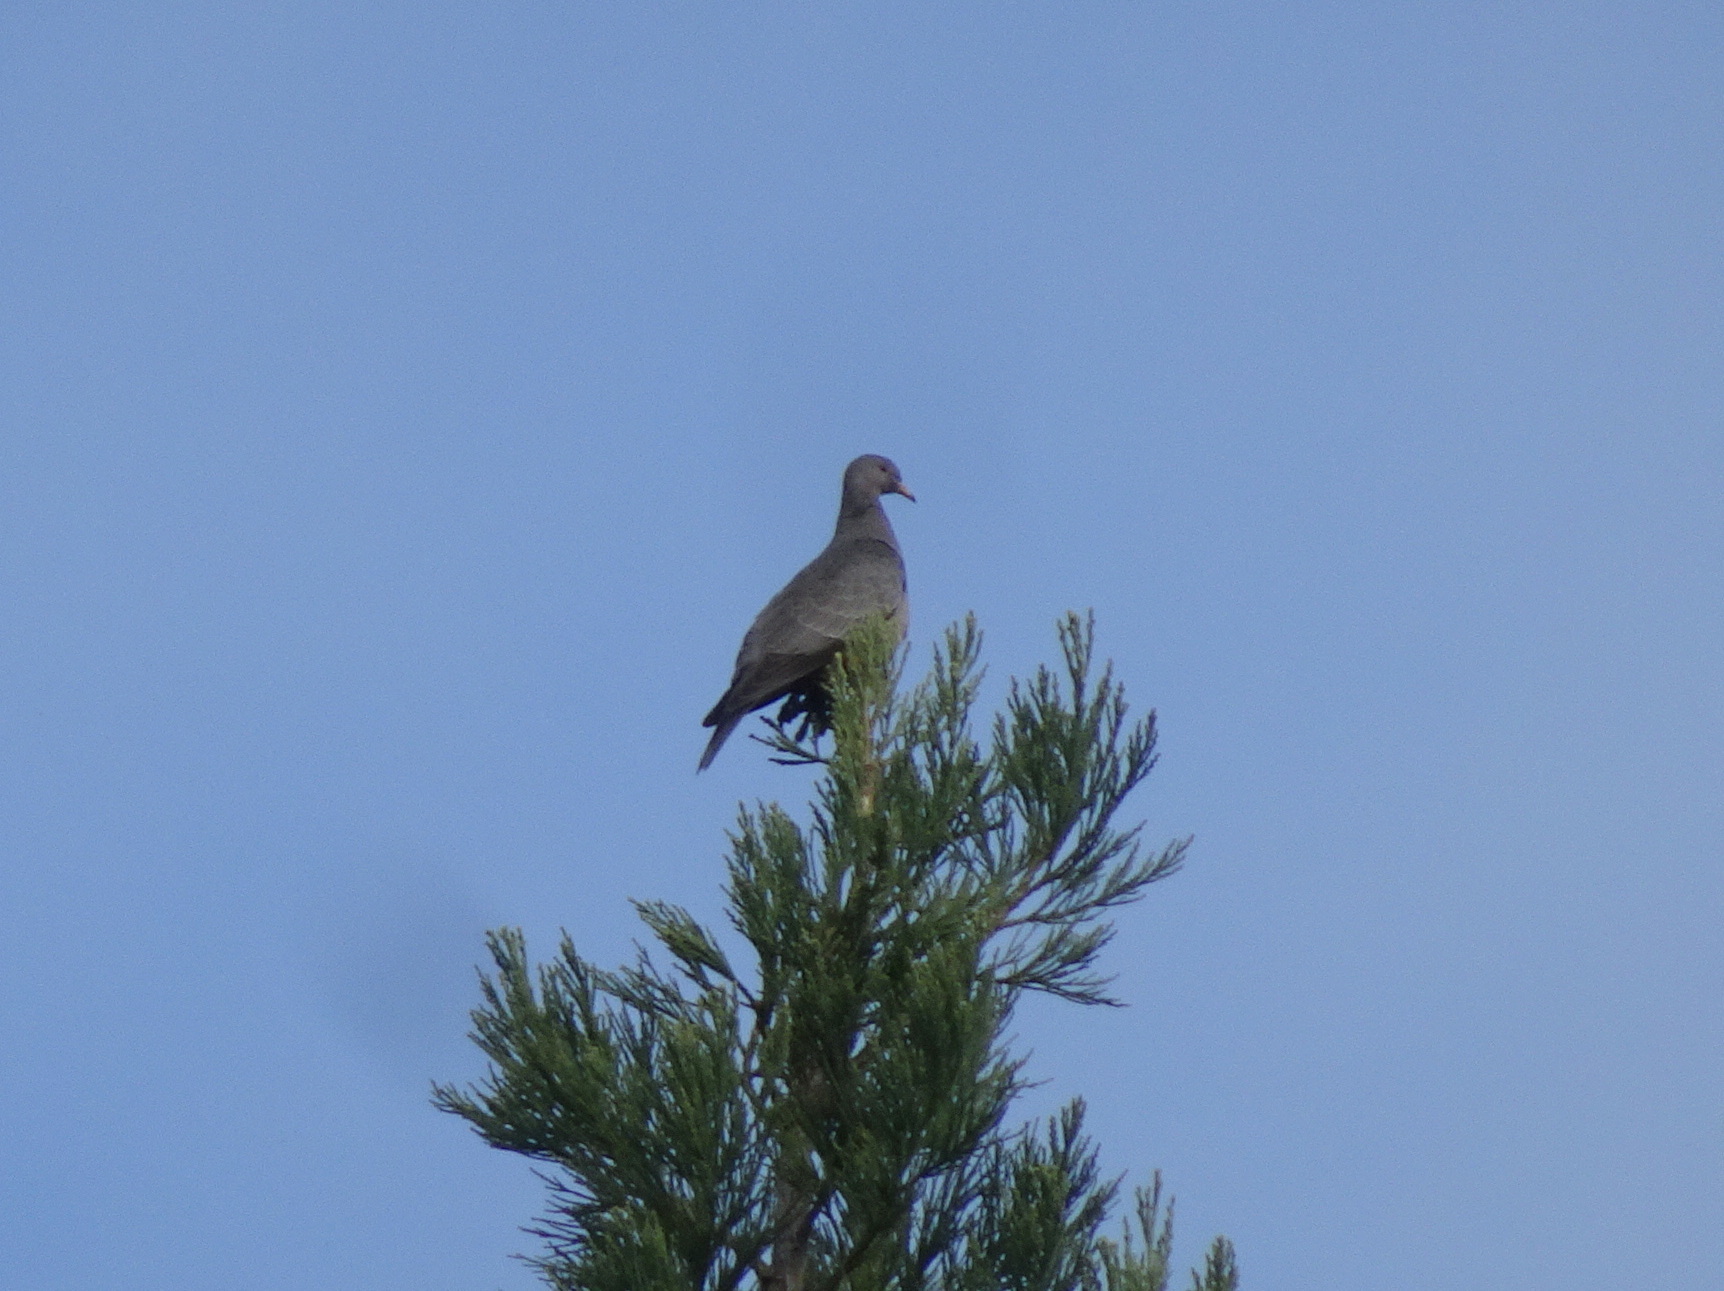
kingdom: Animalia
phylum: Chordata
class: Aves
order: Columbiformes
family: Columbidae
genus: Patagioenas
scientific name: Patagioenas fasciata
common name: Band-tailed pigeon
